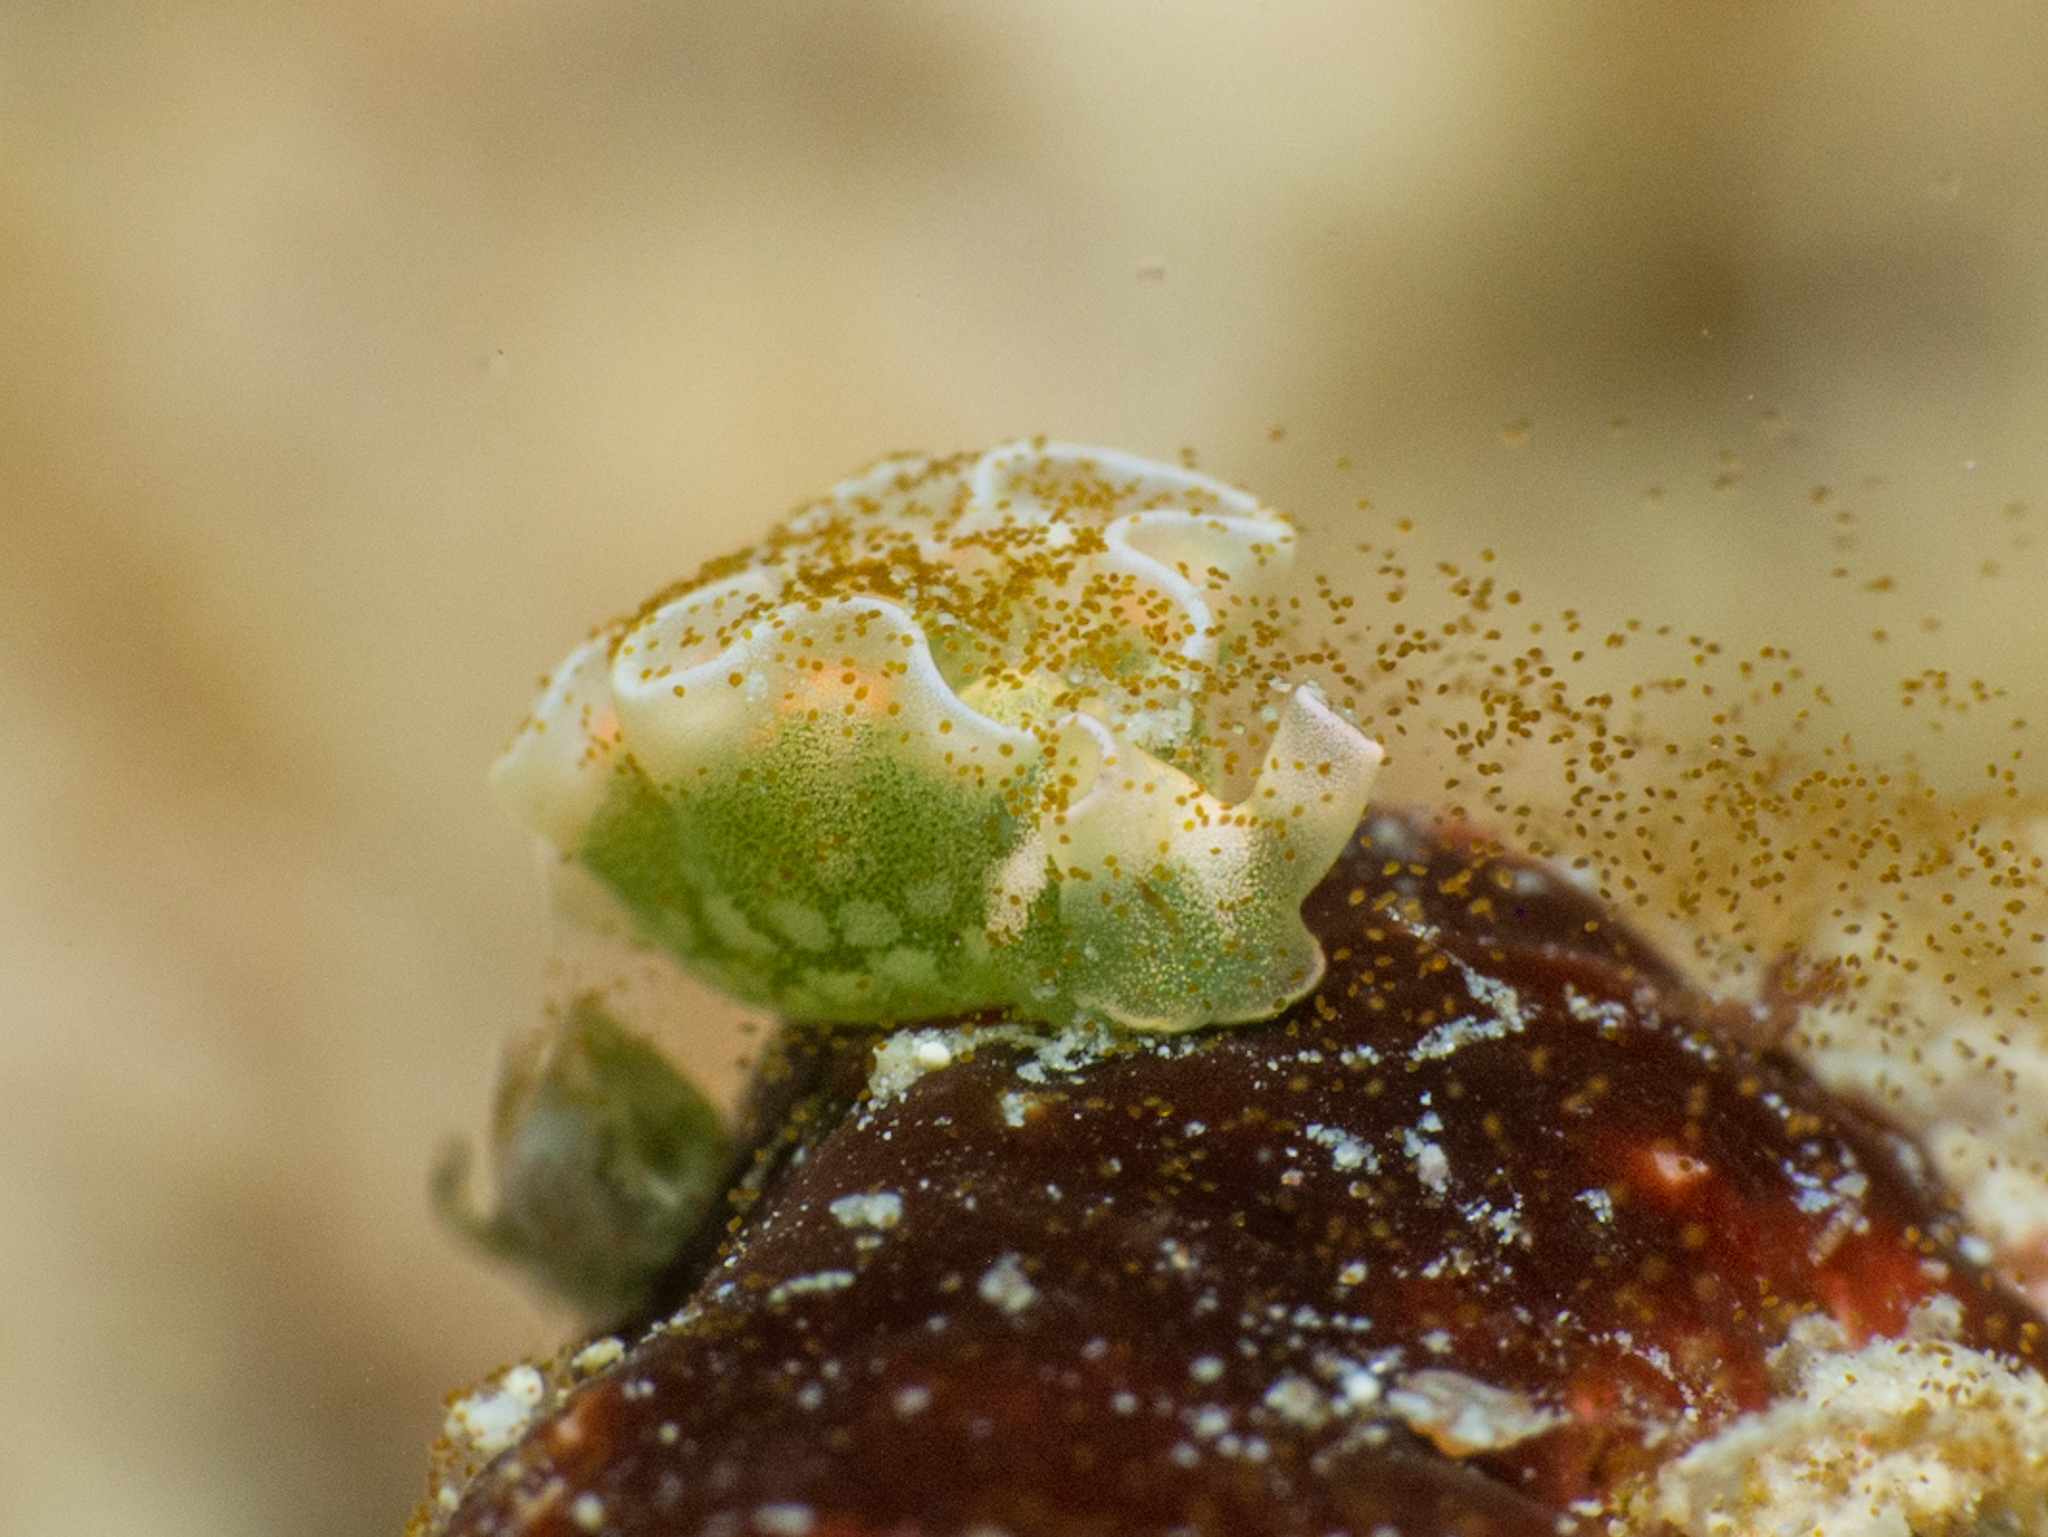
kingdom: Animalia
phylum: Mollusca
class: Gastropoda
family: Plakobranchidae
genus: Elysia
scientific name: Elysia crispata
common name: Lettuce slug
